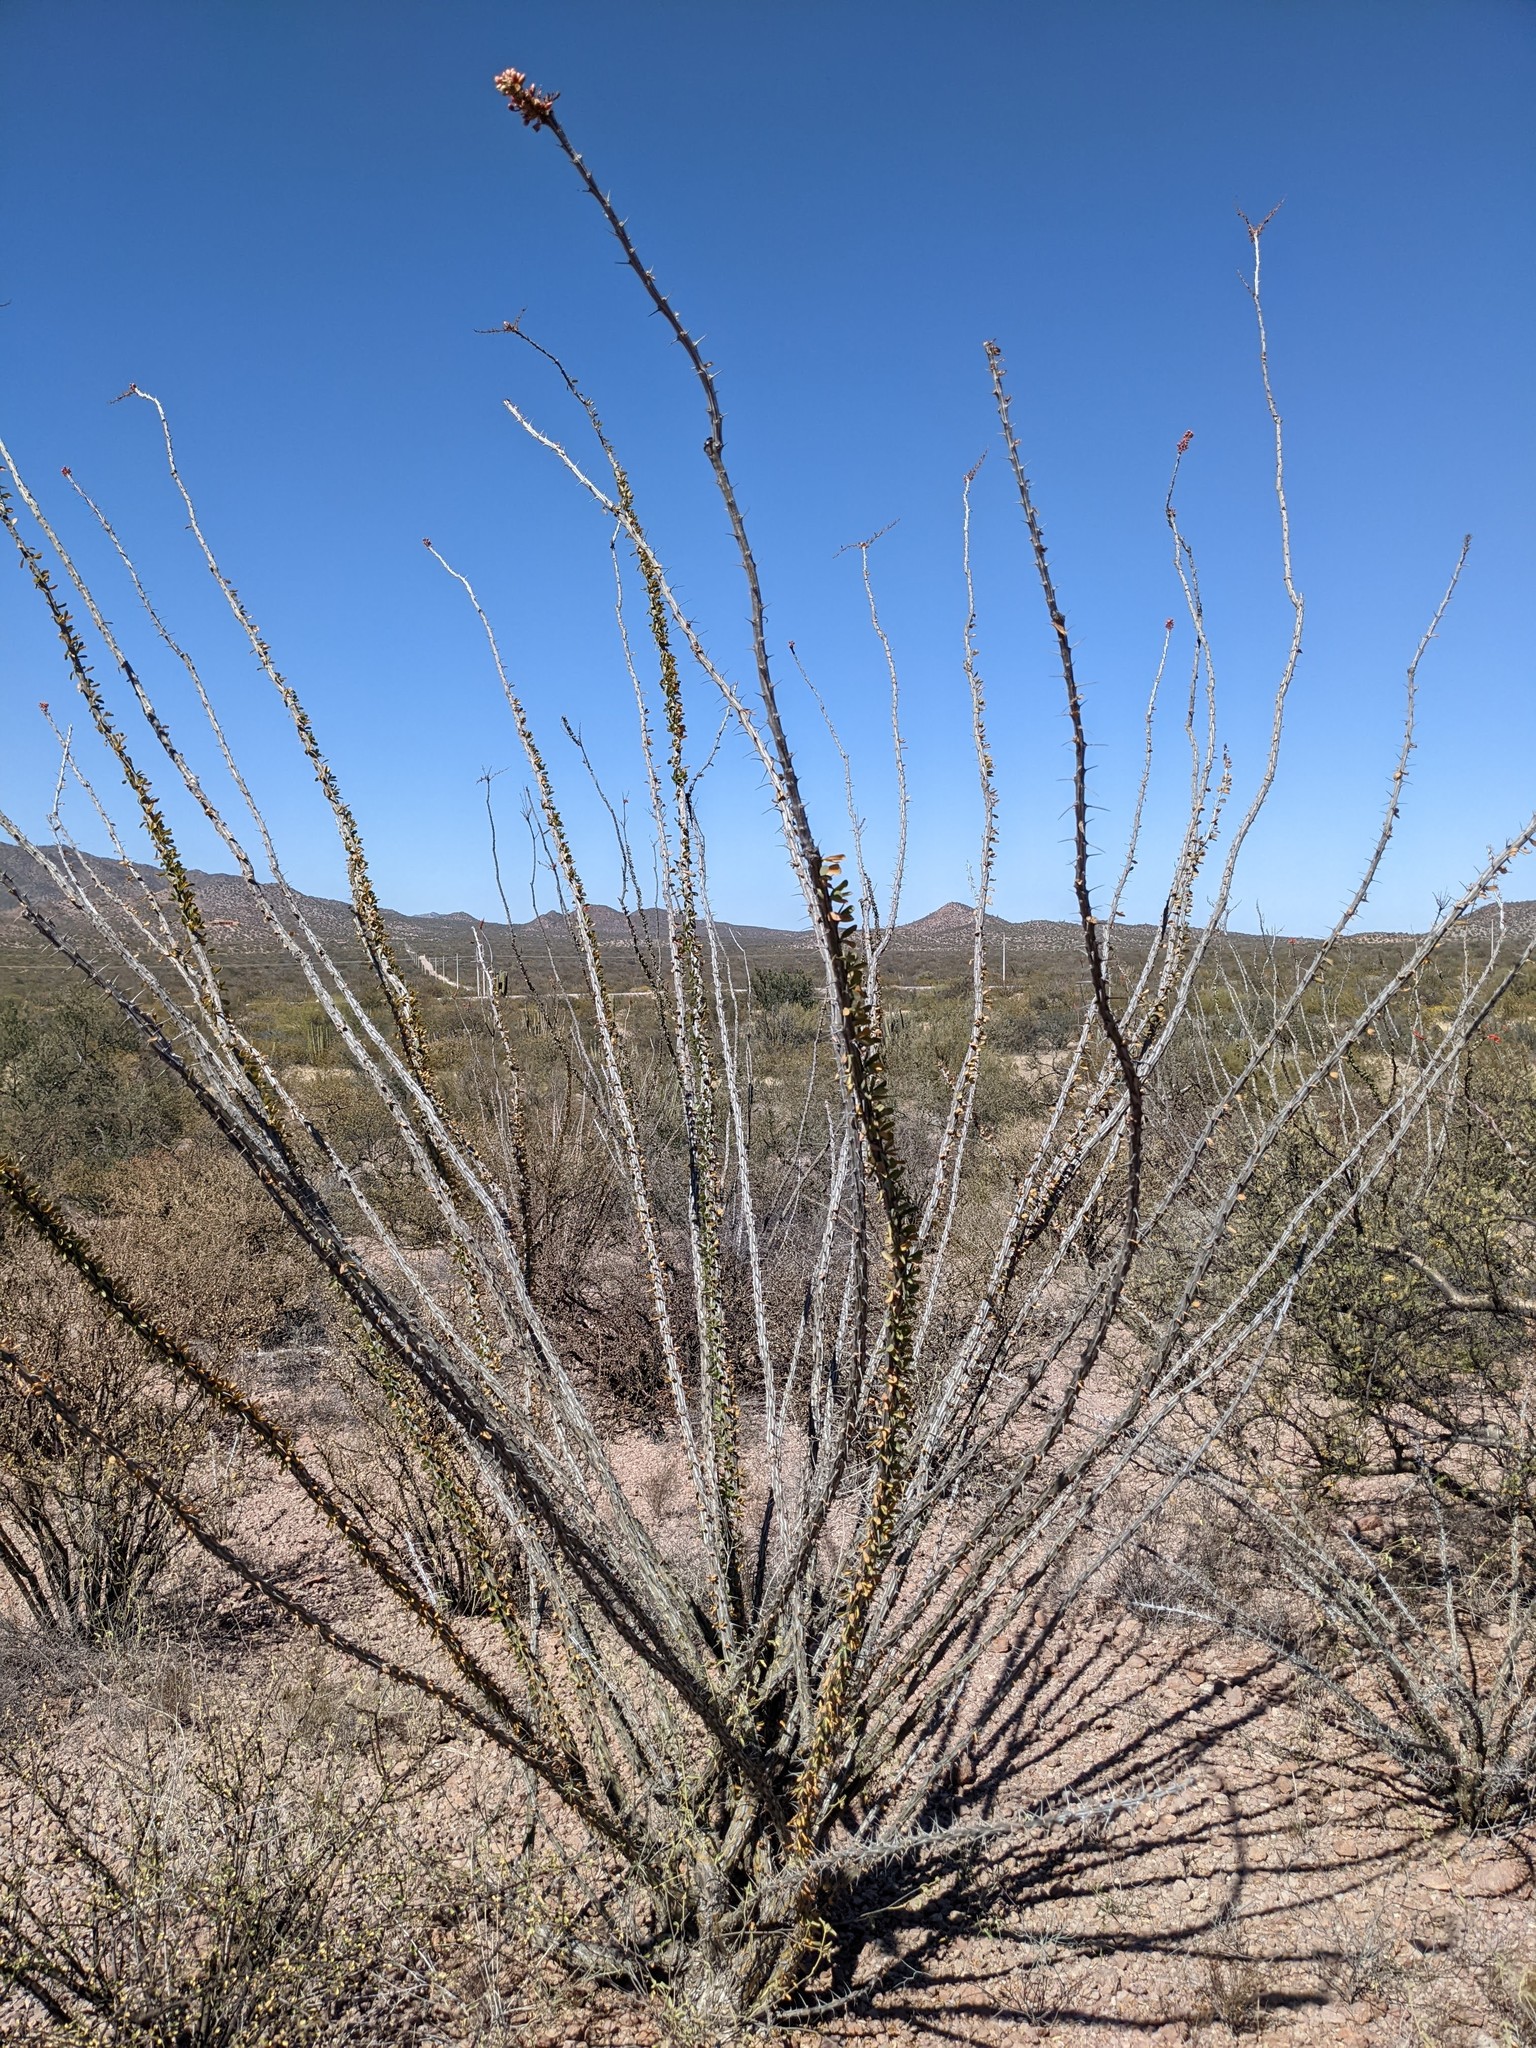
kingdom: Plantae
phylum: Tracheophyta
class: Magnoliopsida
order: Ericales
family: Fouquieriaceae
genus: Fouquieria
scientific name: Fouquieria splendens
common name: Vine-cactus
